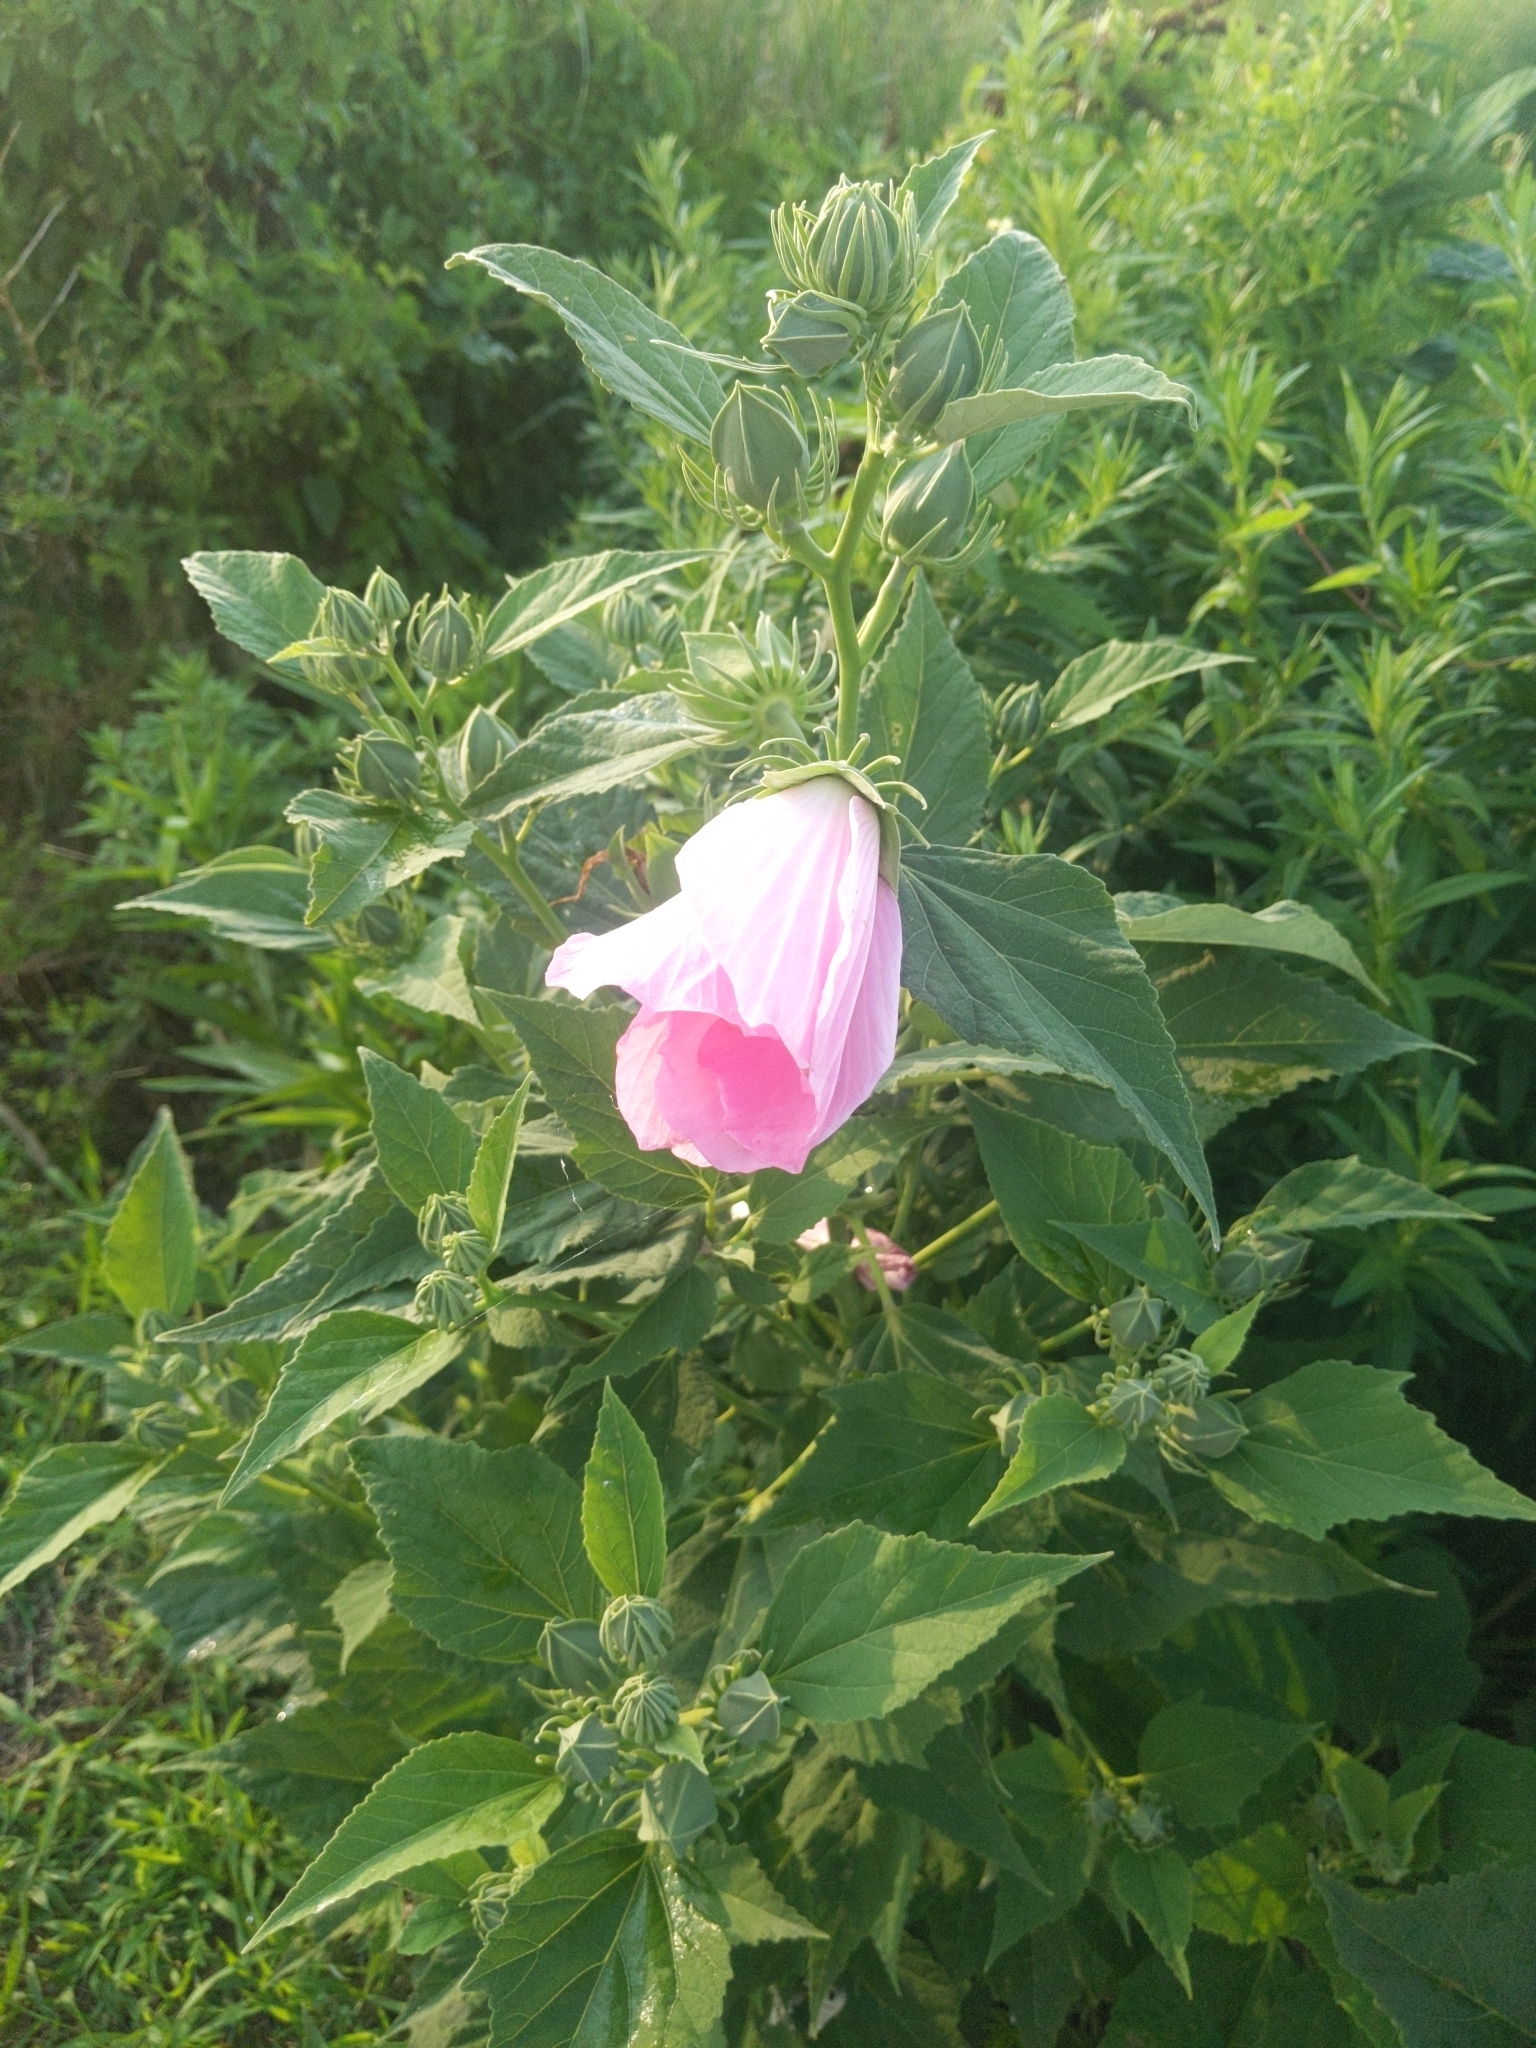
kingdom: Plantae
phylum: Tracheophyta
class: Magnoliopsida
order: Malvales
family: Malvaceae
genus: Hibiscus
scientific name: Hibiscus moscheutos
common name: Common rose-mallow
